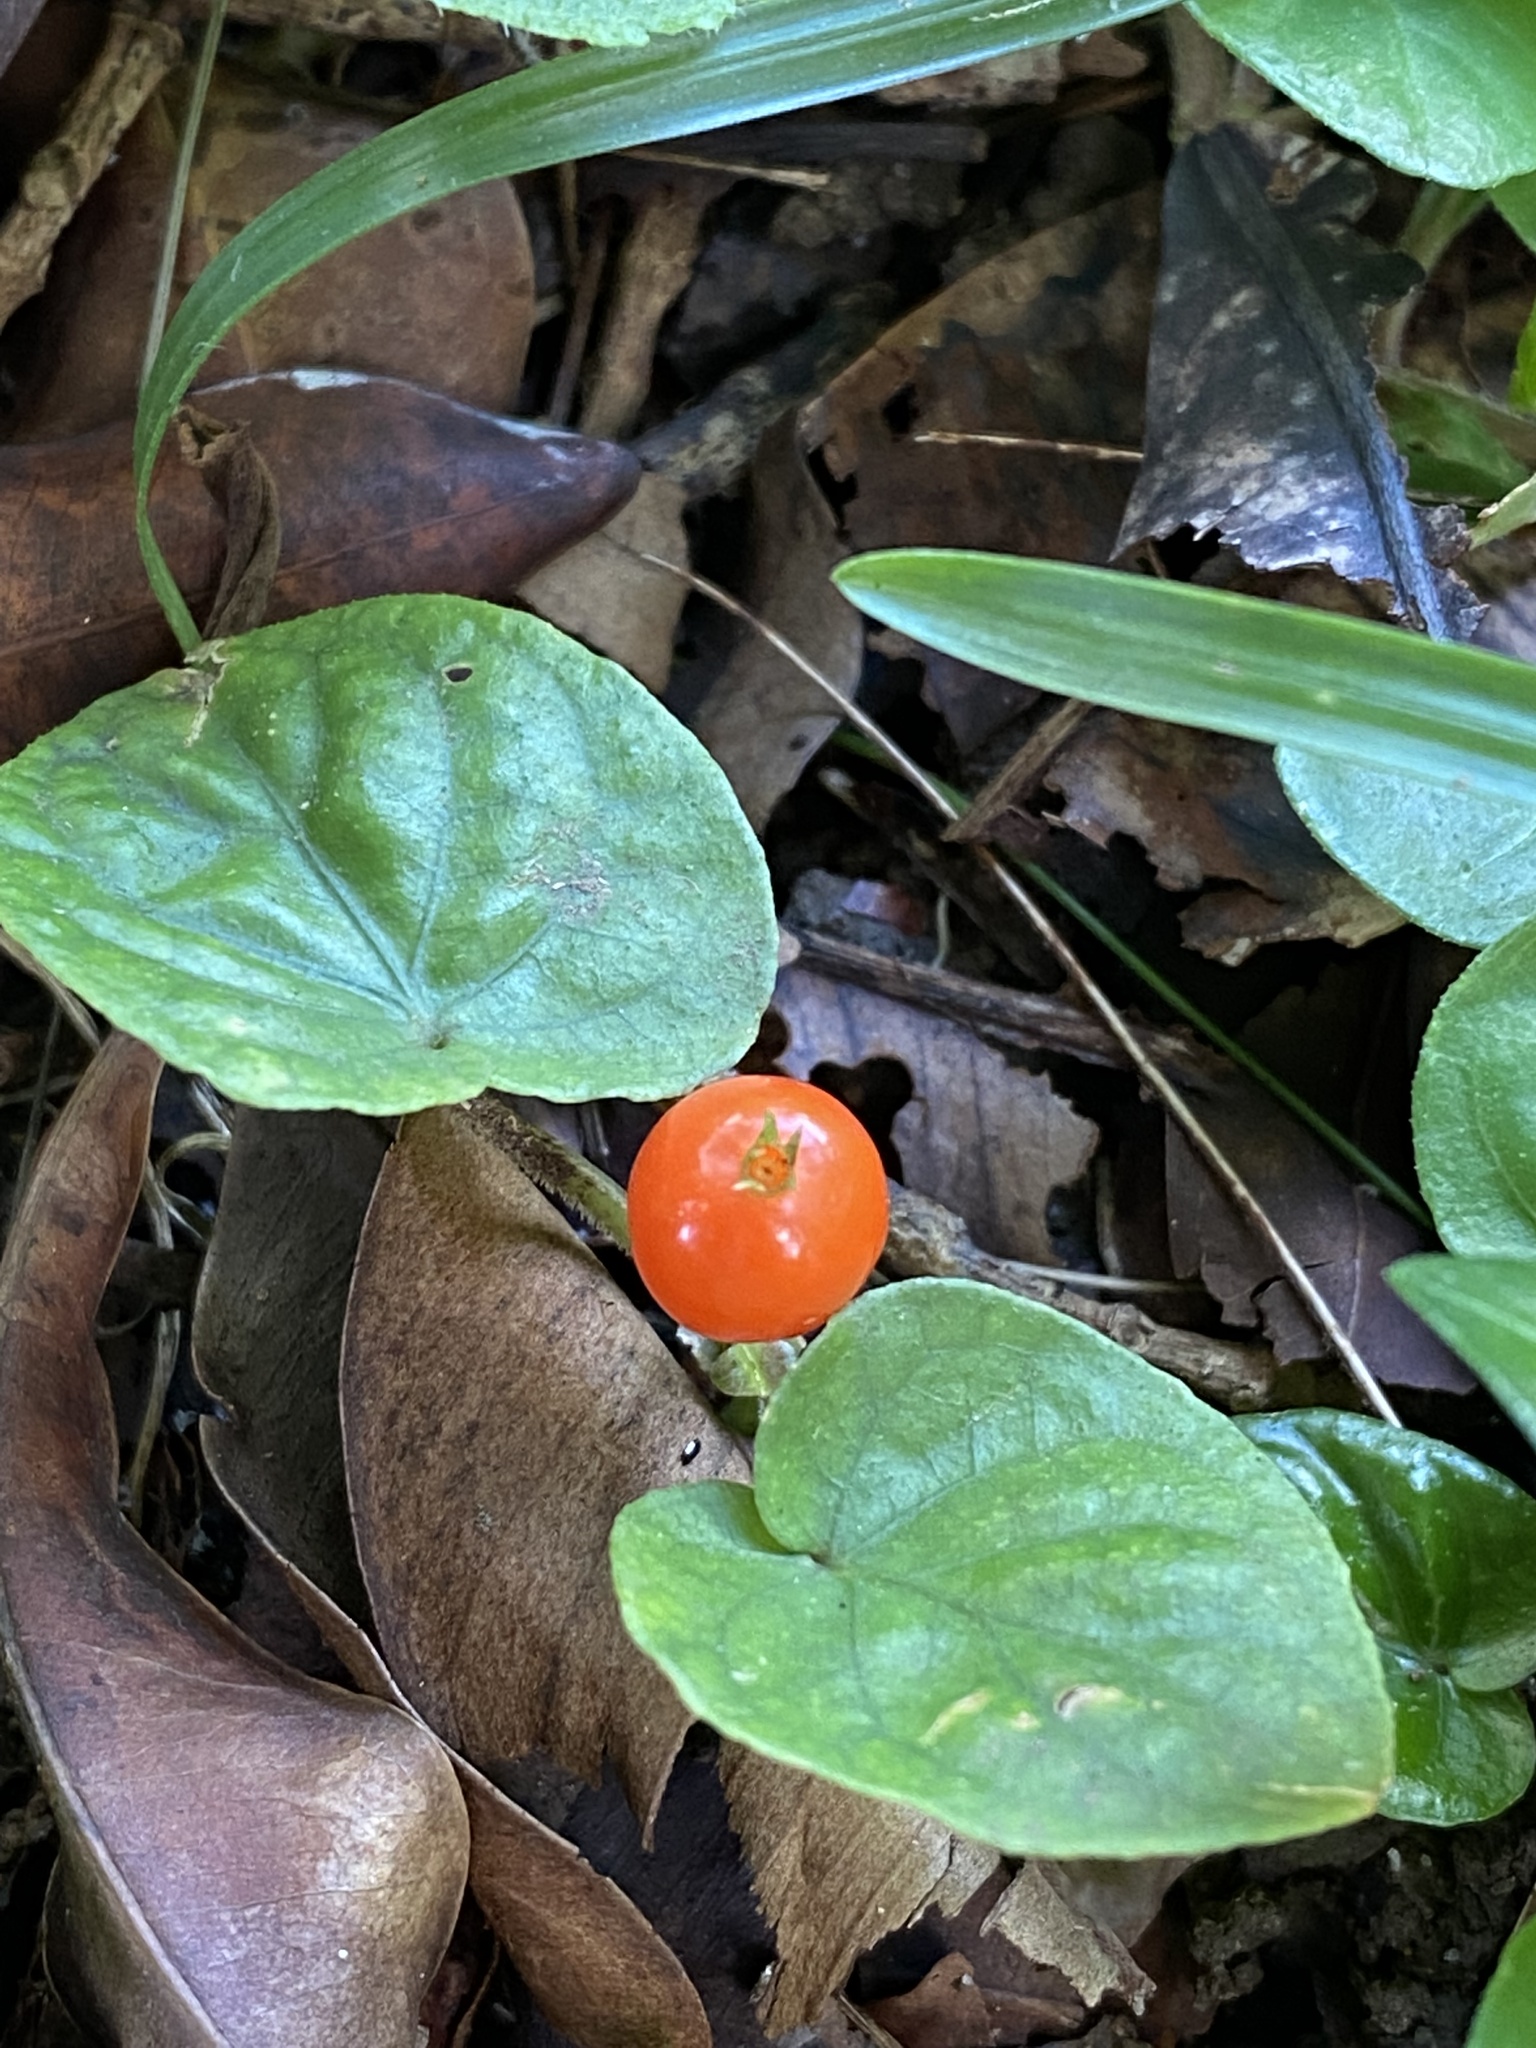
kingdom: Plantae
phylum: Tracheophyta
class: Magnoliopsida
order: Gentianales
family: Rubiaceae
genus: Geophila
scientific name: Geophila repens
